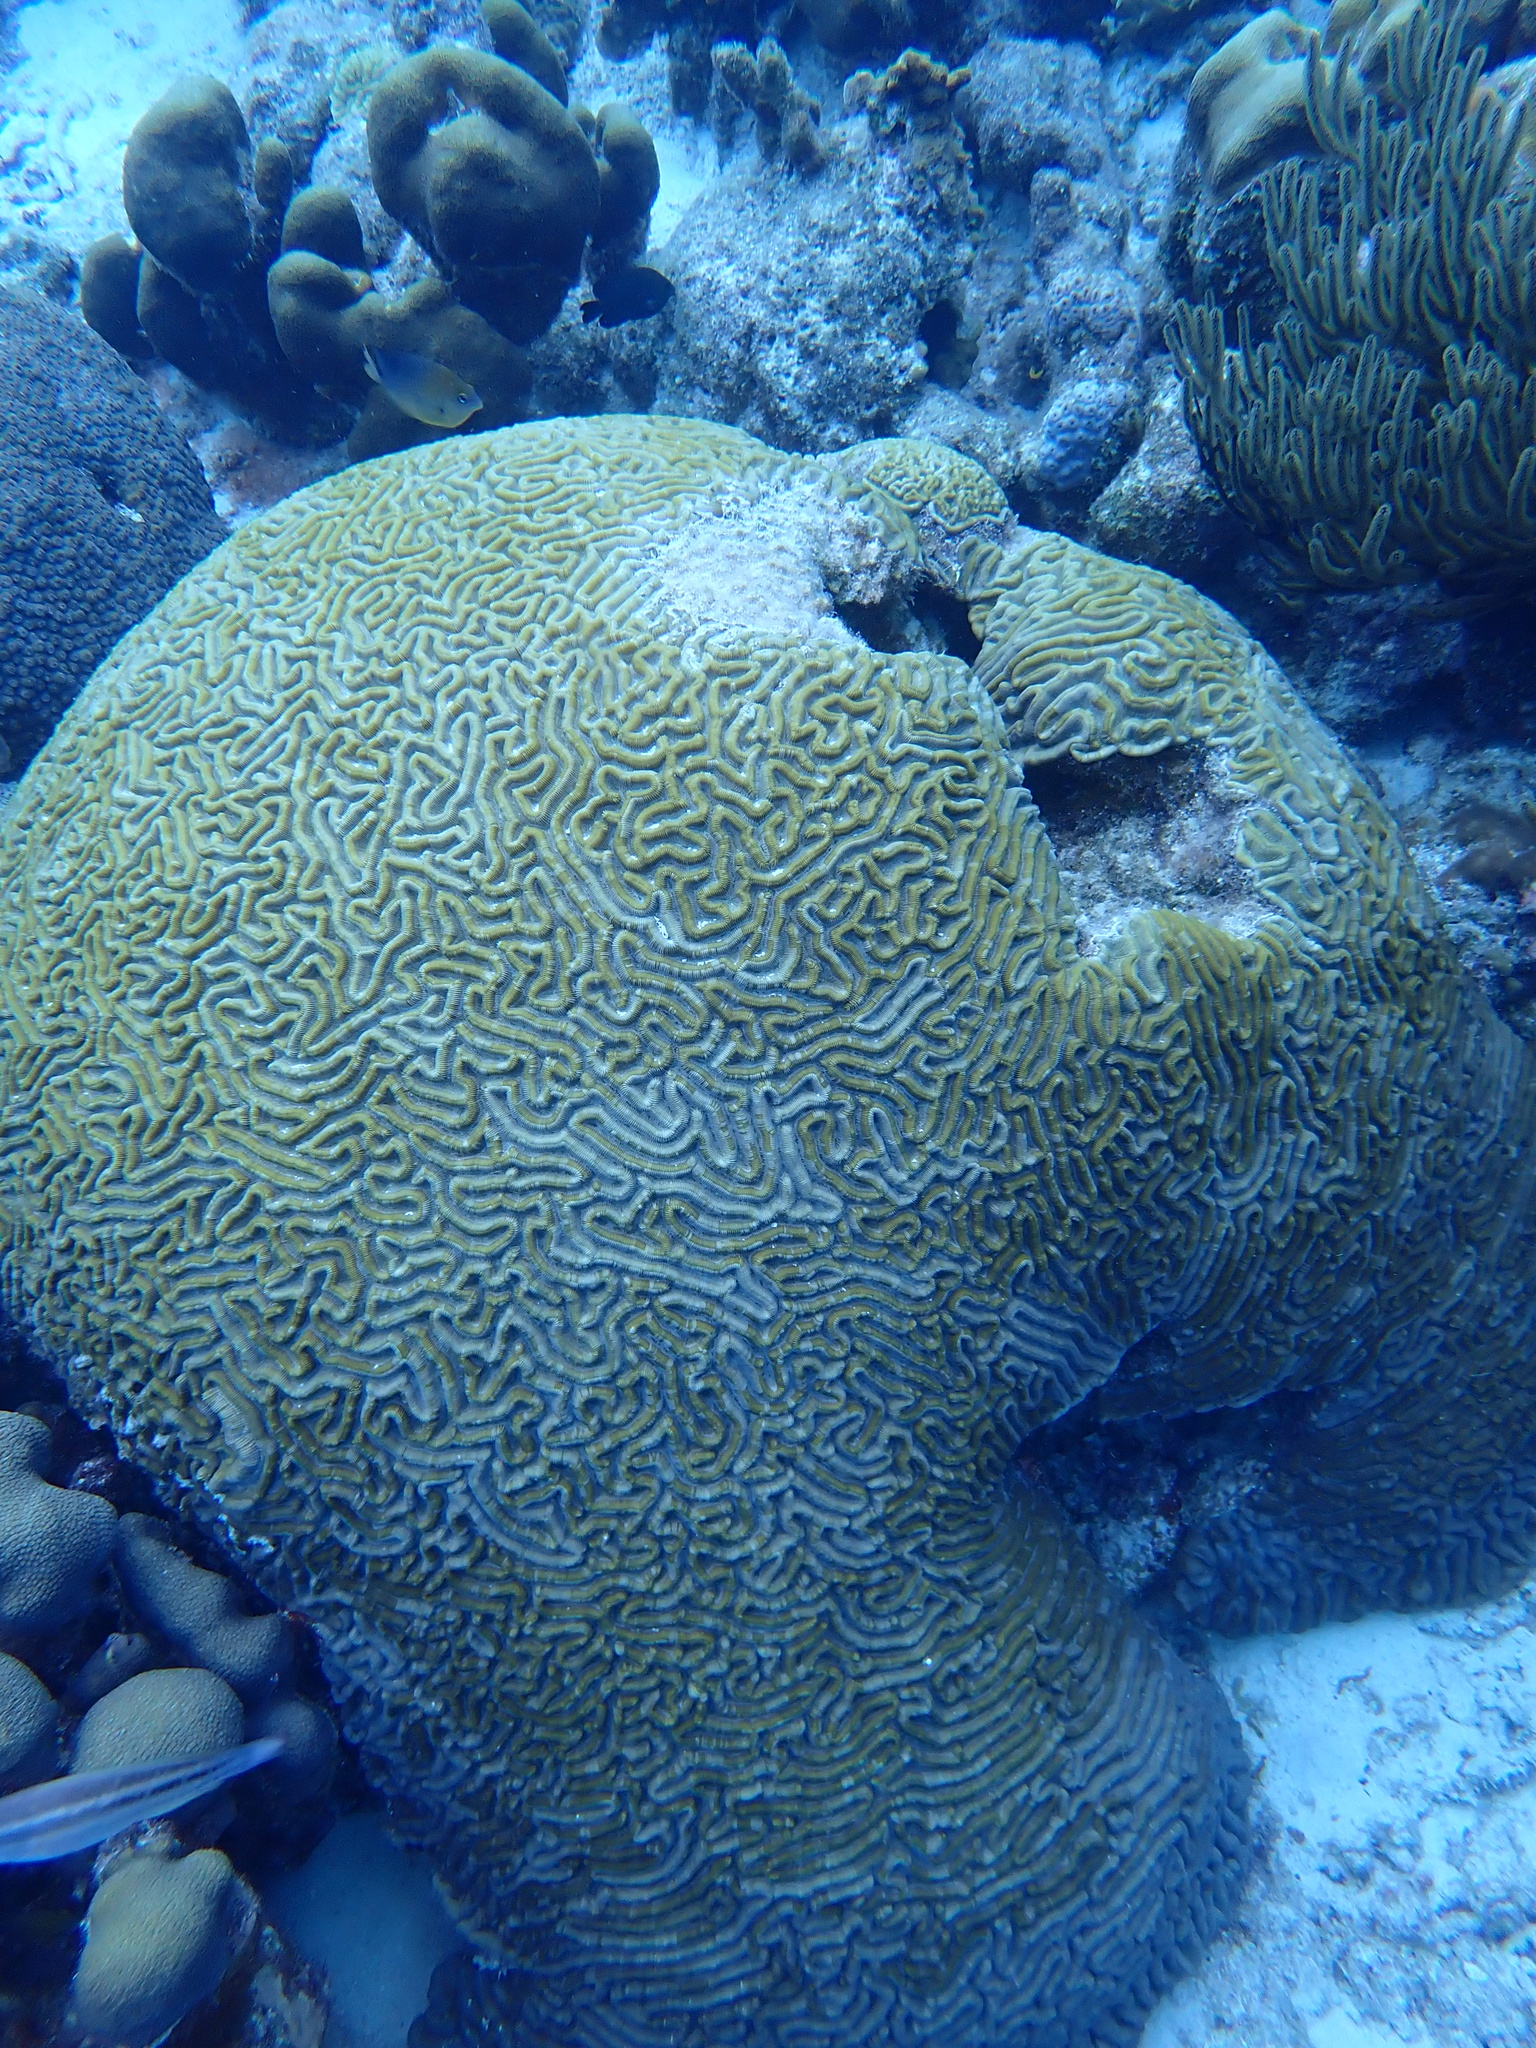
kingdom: Animalia
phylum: Cnidaria
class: Anthozoa
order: Scleractinia
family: Faviidae
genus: Pseudodiploria
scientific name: Pseudodiploria strigosa
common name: Symmetrical brain coral
